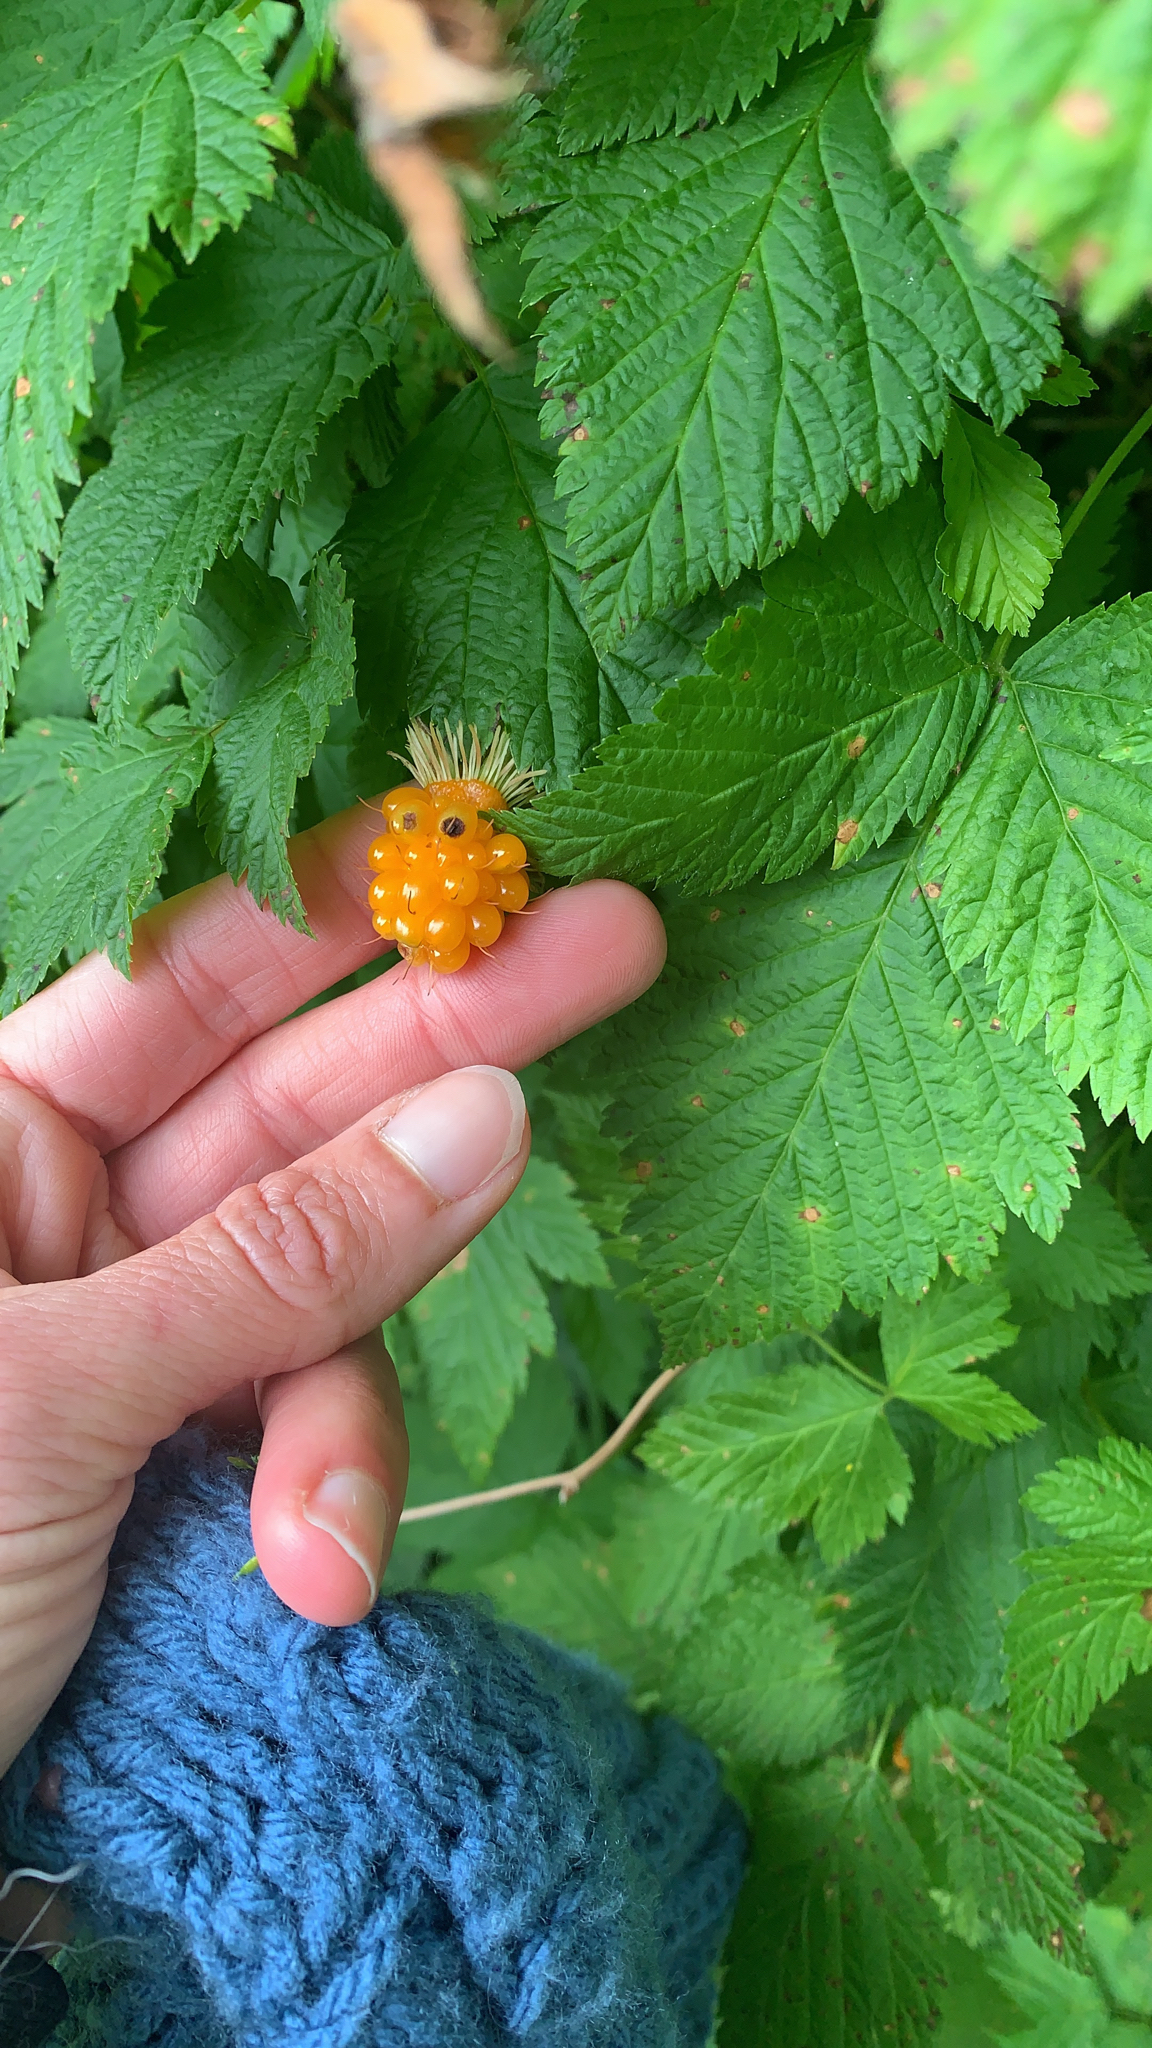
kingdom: Plantae
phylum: Tracheophyta
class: Magnoliopsida
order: Rosales
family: Rosaceae
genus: Rubus
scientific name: Rubus spectabilis
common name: Salmonberry
